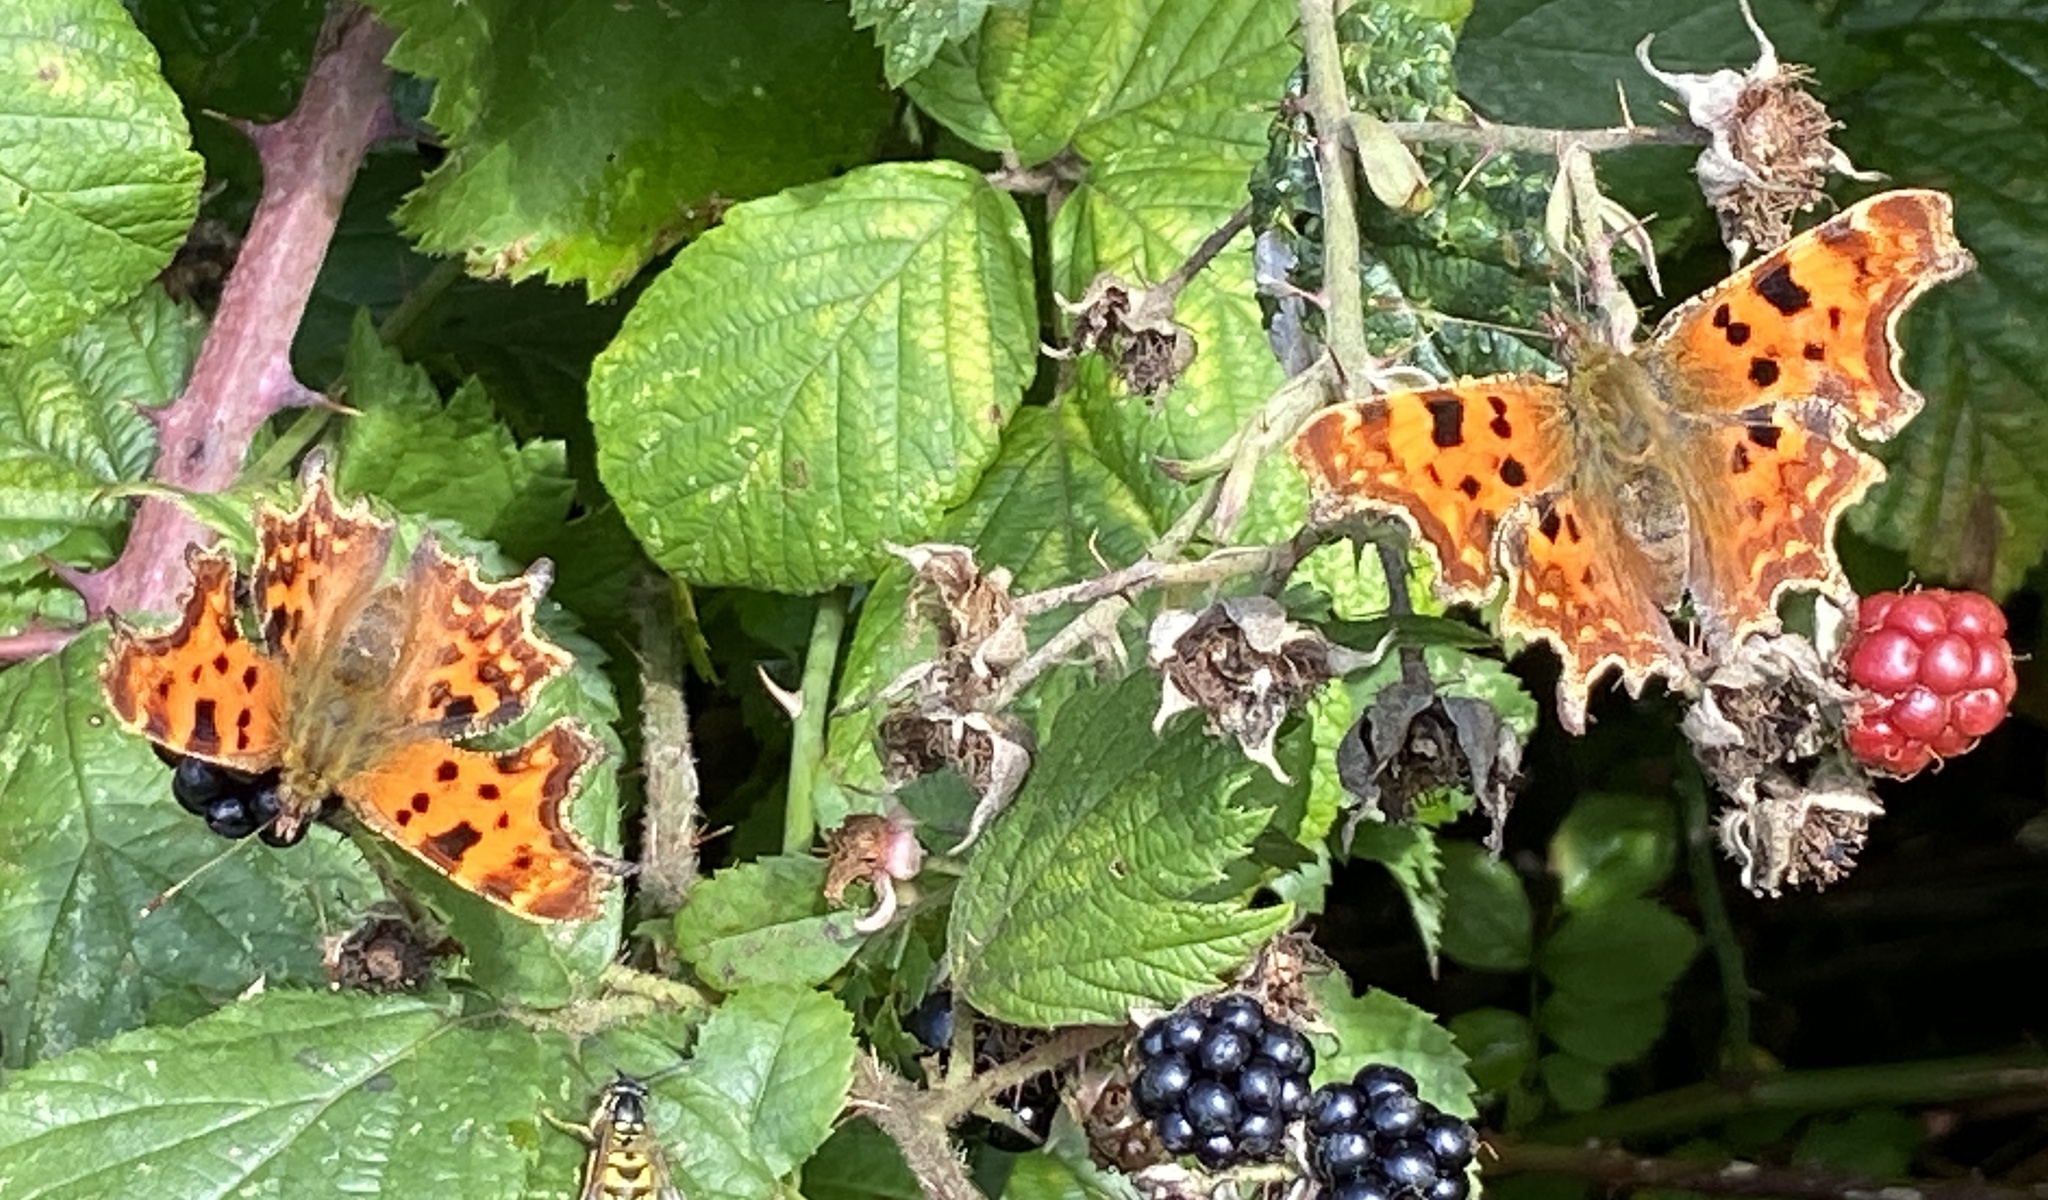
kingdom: Animalia
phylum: Arthropoda
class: Insecta
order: Lepidoptera
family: Nymphalidae
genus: Polygonia
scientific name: Polygonia c-album
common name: Comma
